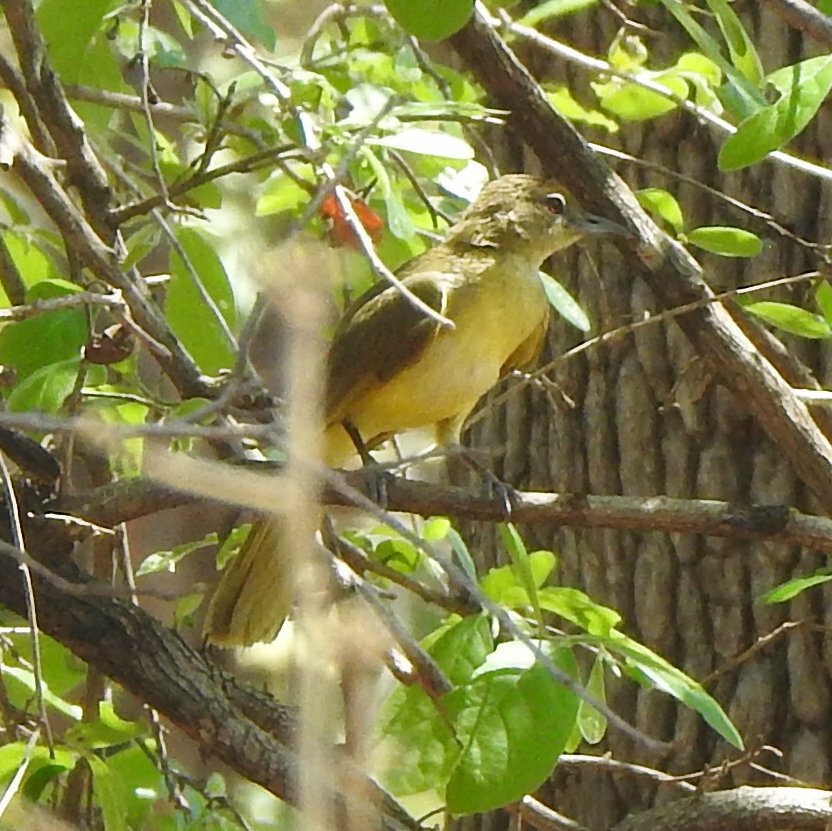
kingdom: Animalia
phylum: Chordata
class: Aves
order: Passeriformes
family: Pycnonotidae
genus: Chlorocichla
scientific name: Chlorocichla flaviventris
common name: Yellow-bellied greenbul
